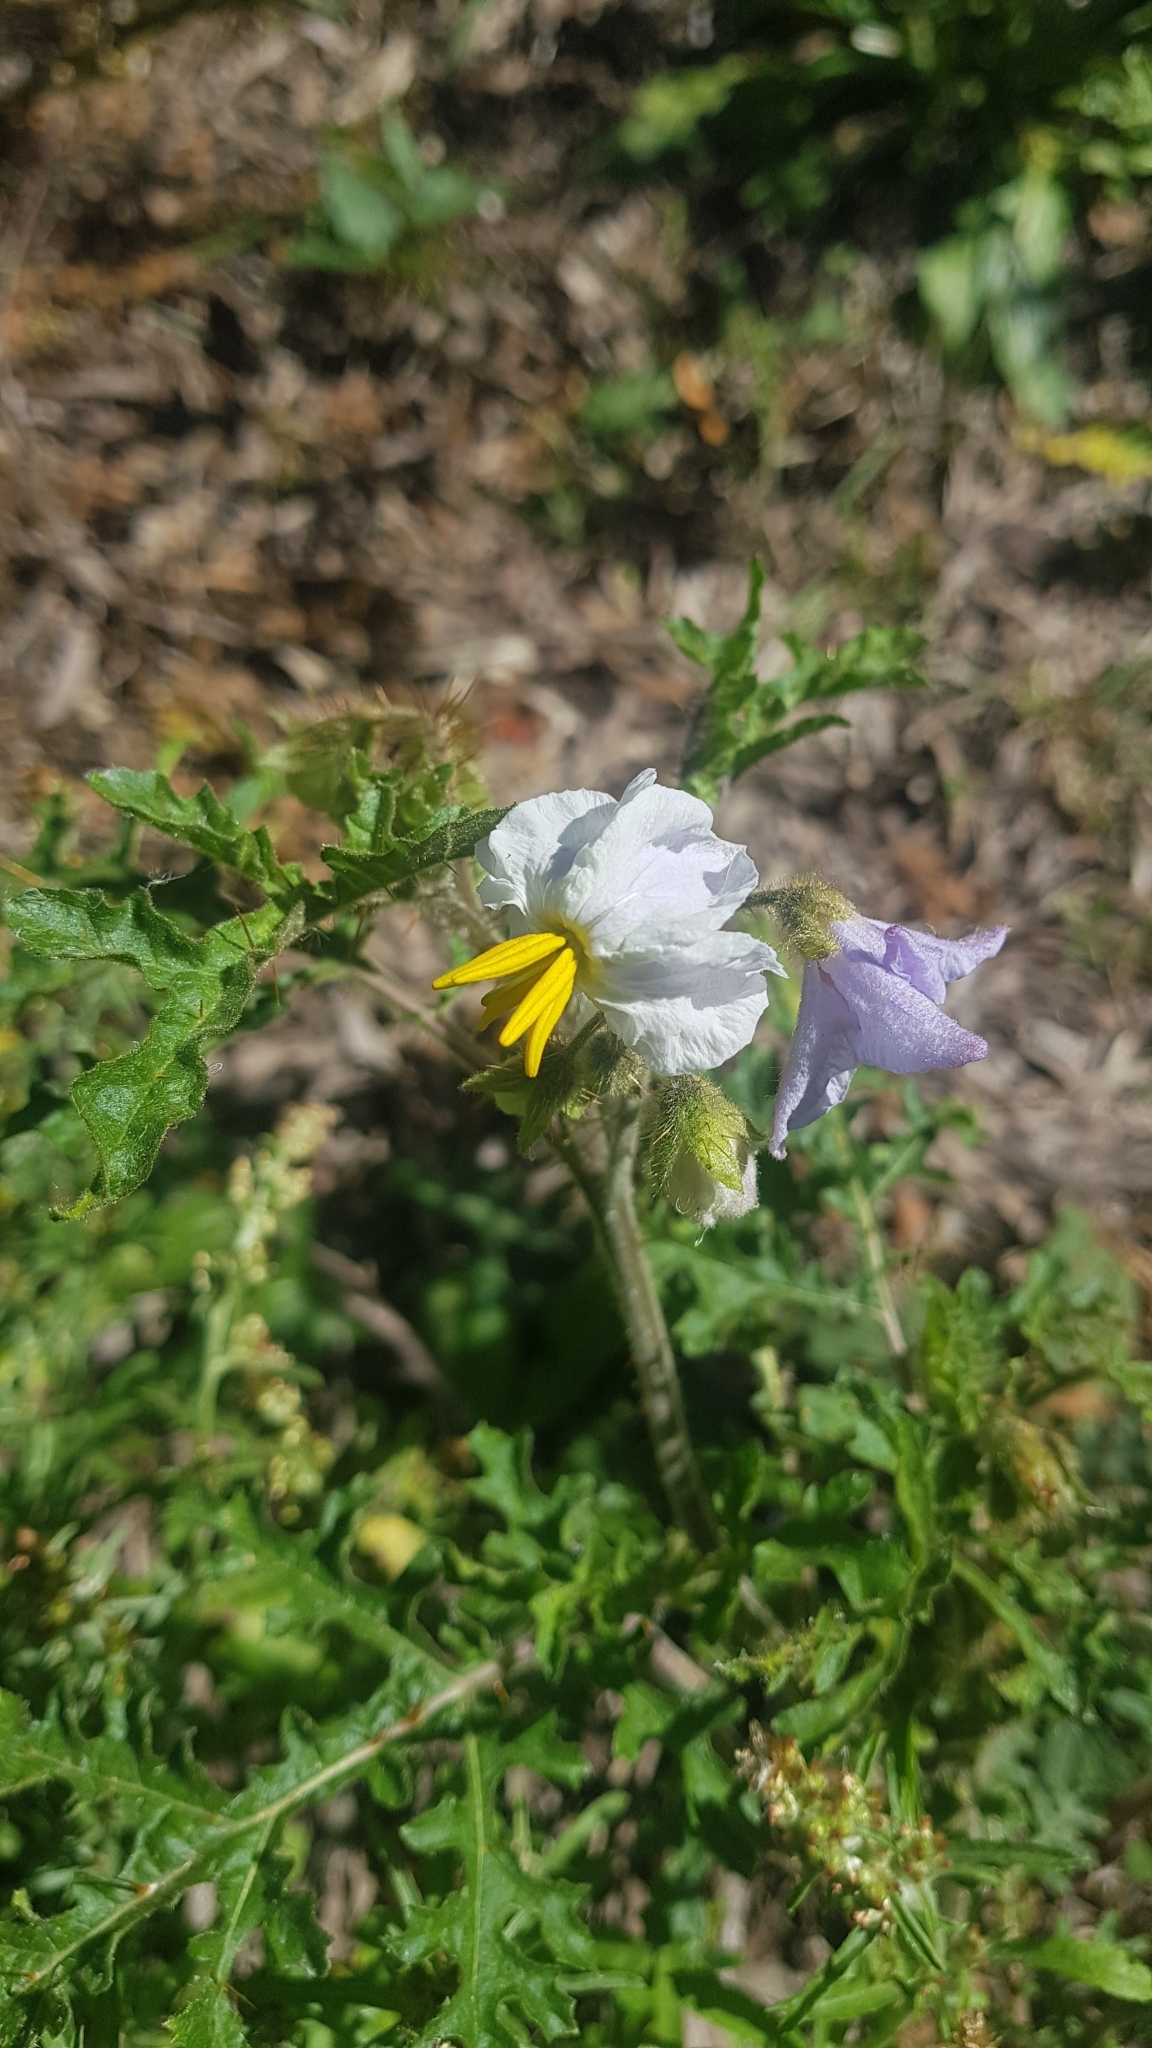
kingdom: Plantae
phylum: Tracheophyta
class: Magnoliopsida
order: Solanales
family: Solanaceae
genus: Solanum
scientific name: Solanum sisymbriifolium
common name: Red buffalo-bur
